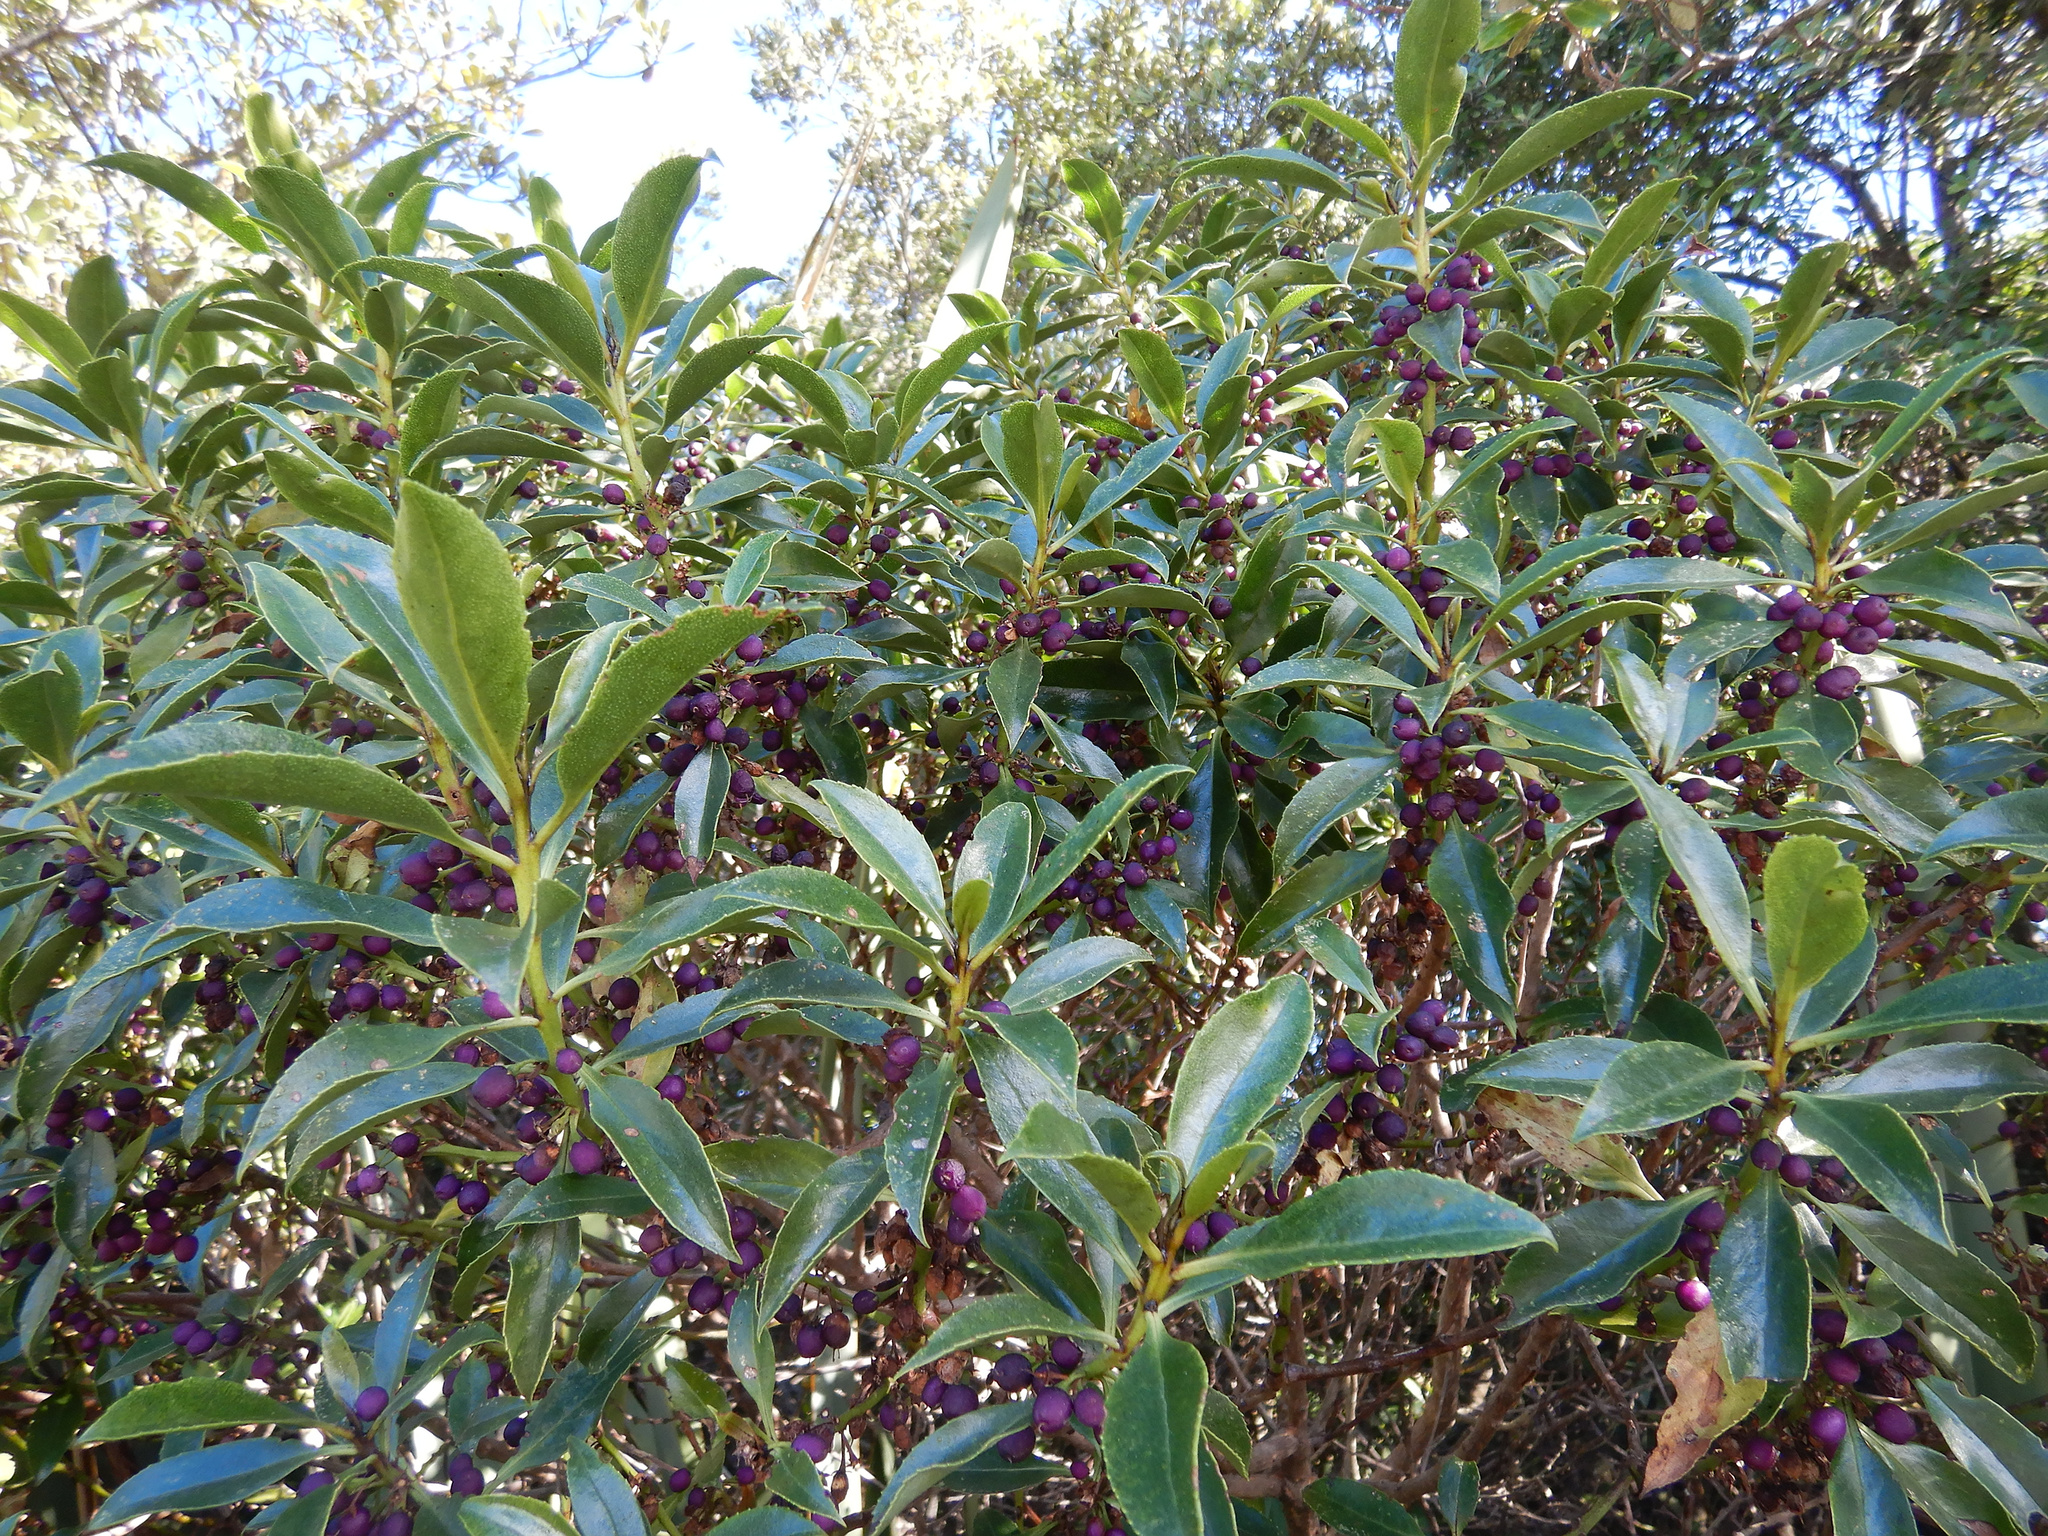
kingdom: Plantae
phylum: Tracheophyta
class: Magnoliopsida
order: Lamiales
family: Scrophulariaceae
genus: Myoporum
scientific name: Myoporum laetum
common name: Ngaio tree
